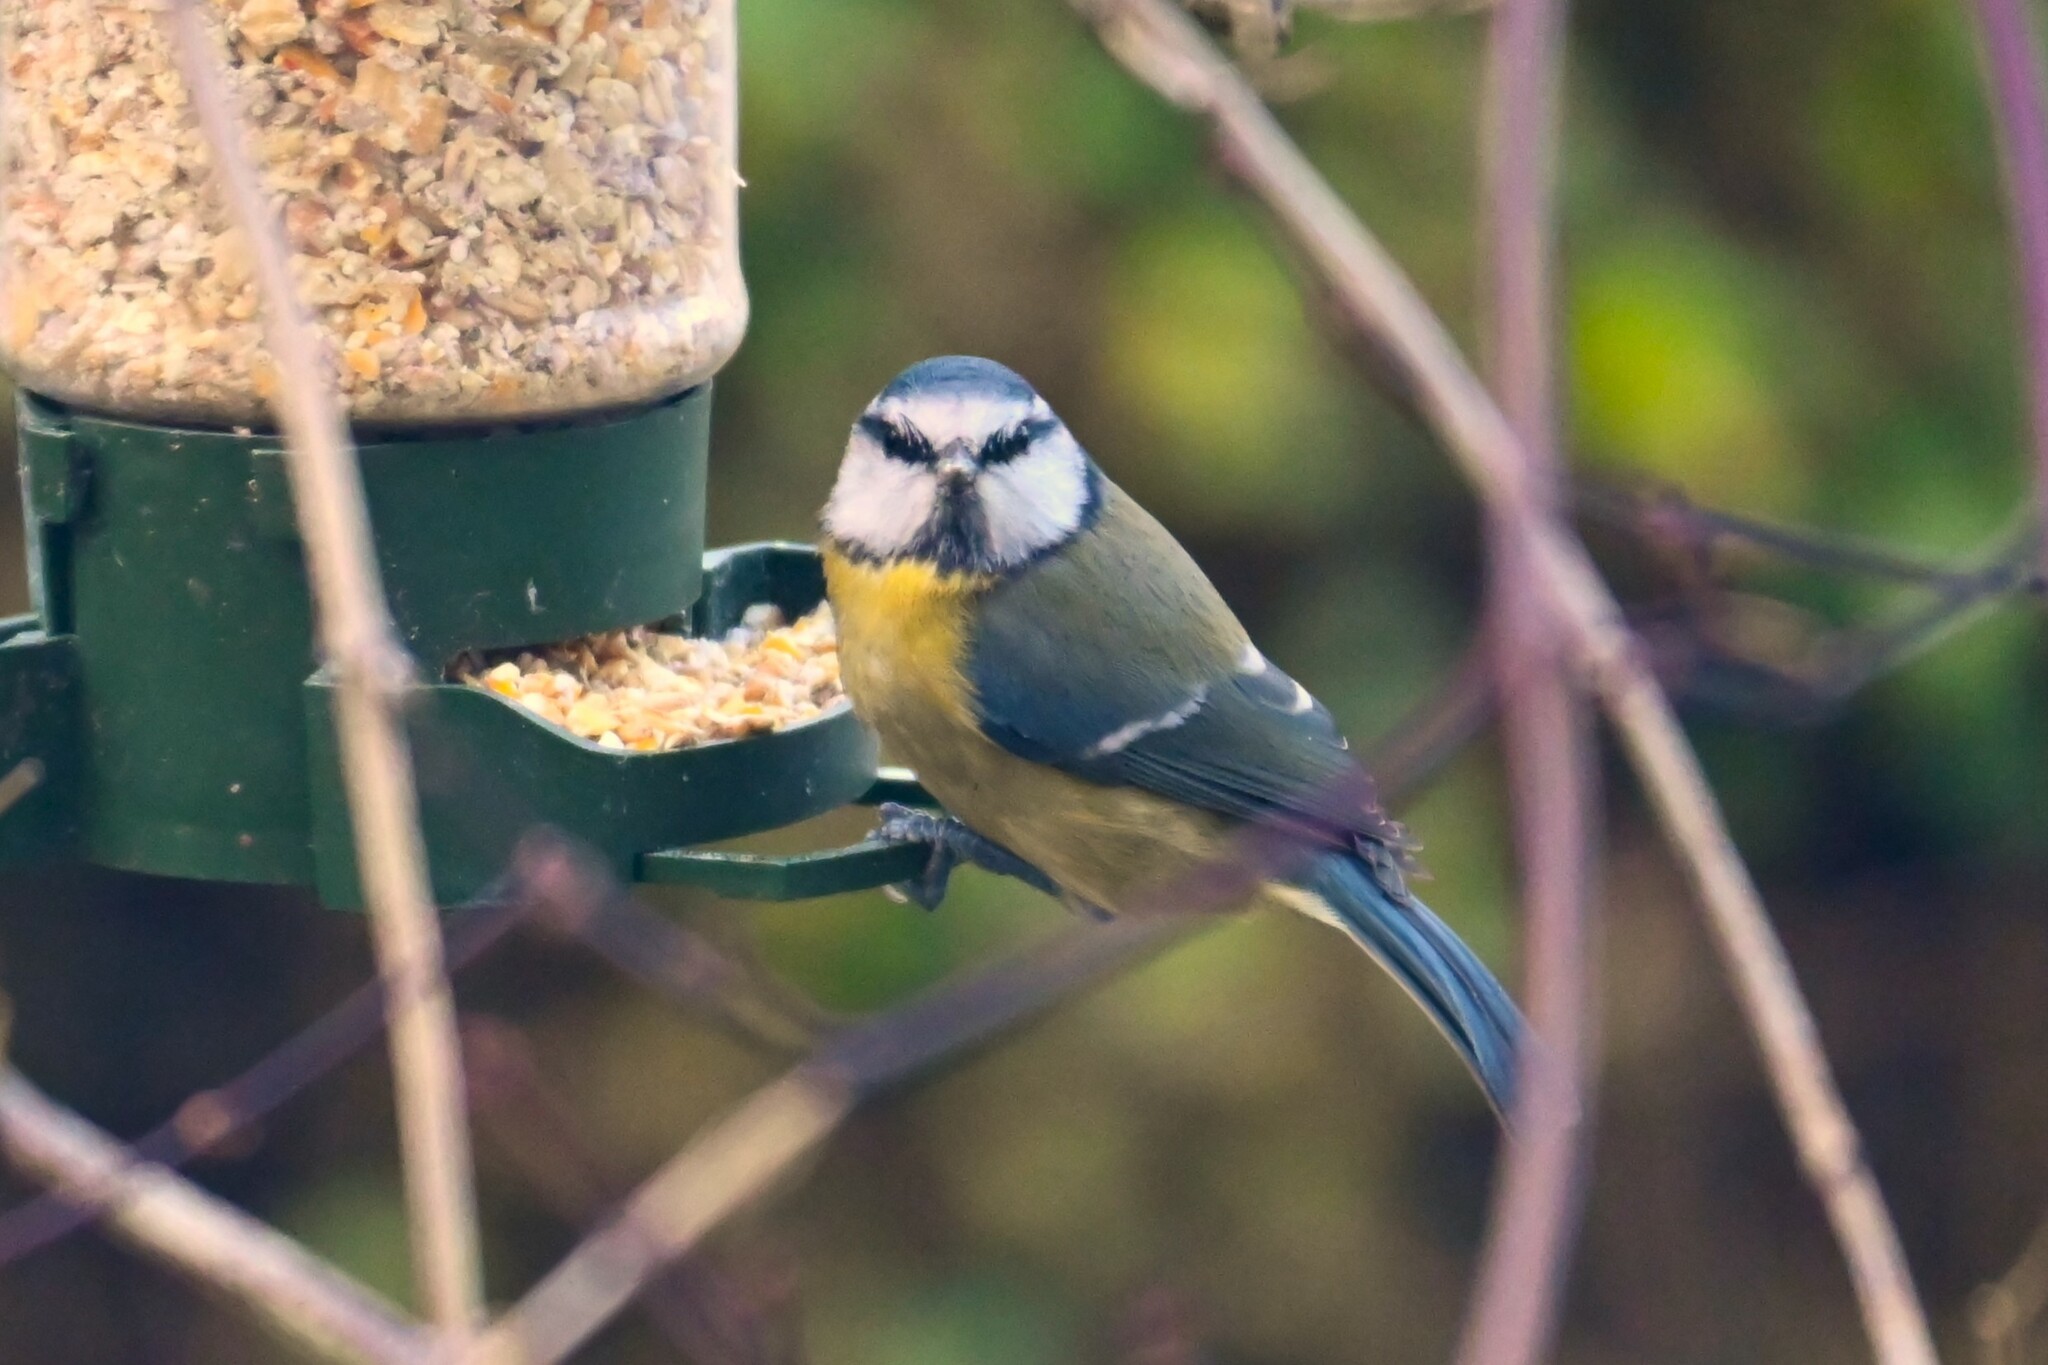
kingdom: Animalia
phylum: Chordata
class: Aves
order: Passeriformes
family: Paridae
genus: Cyanistes
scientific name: Cyanistes caeruleus
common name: Eurasian blue tit
